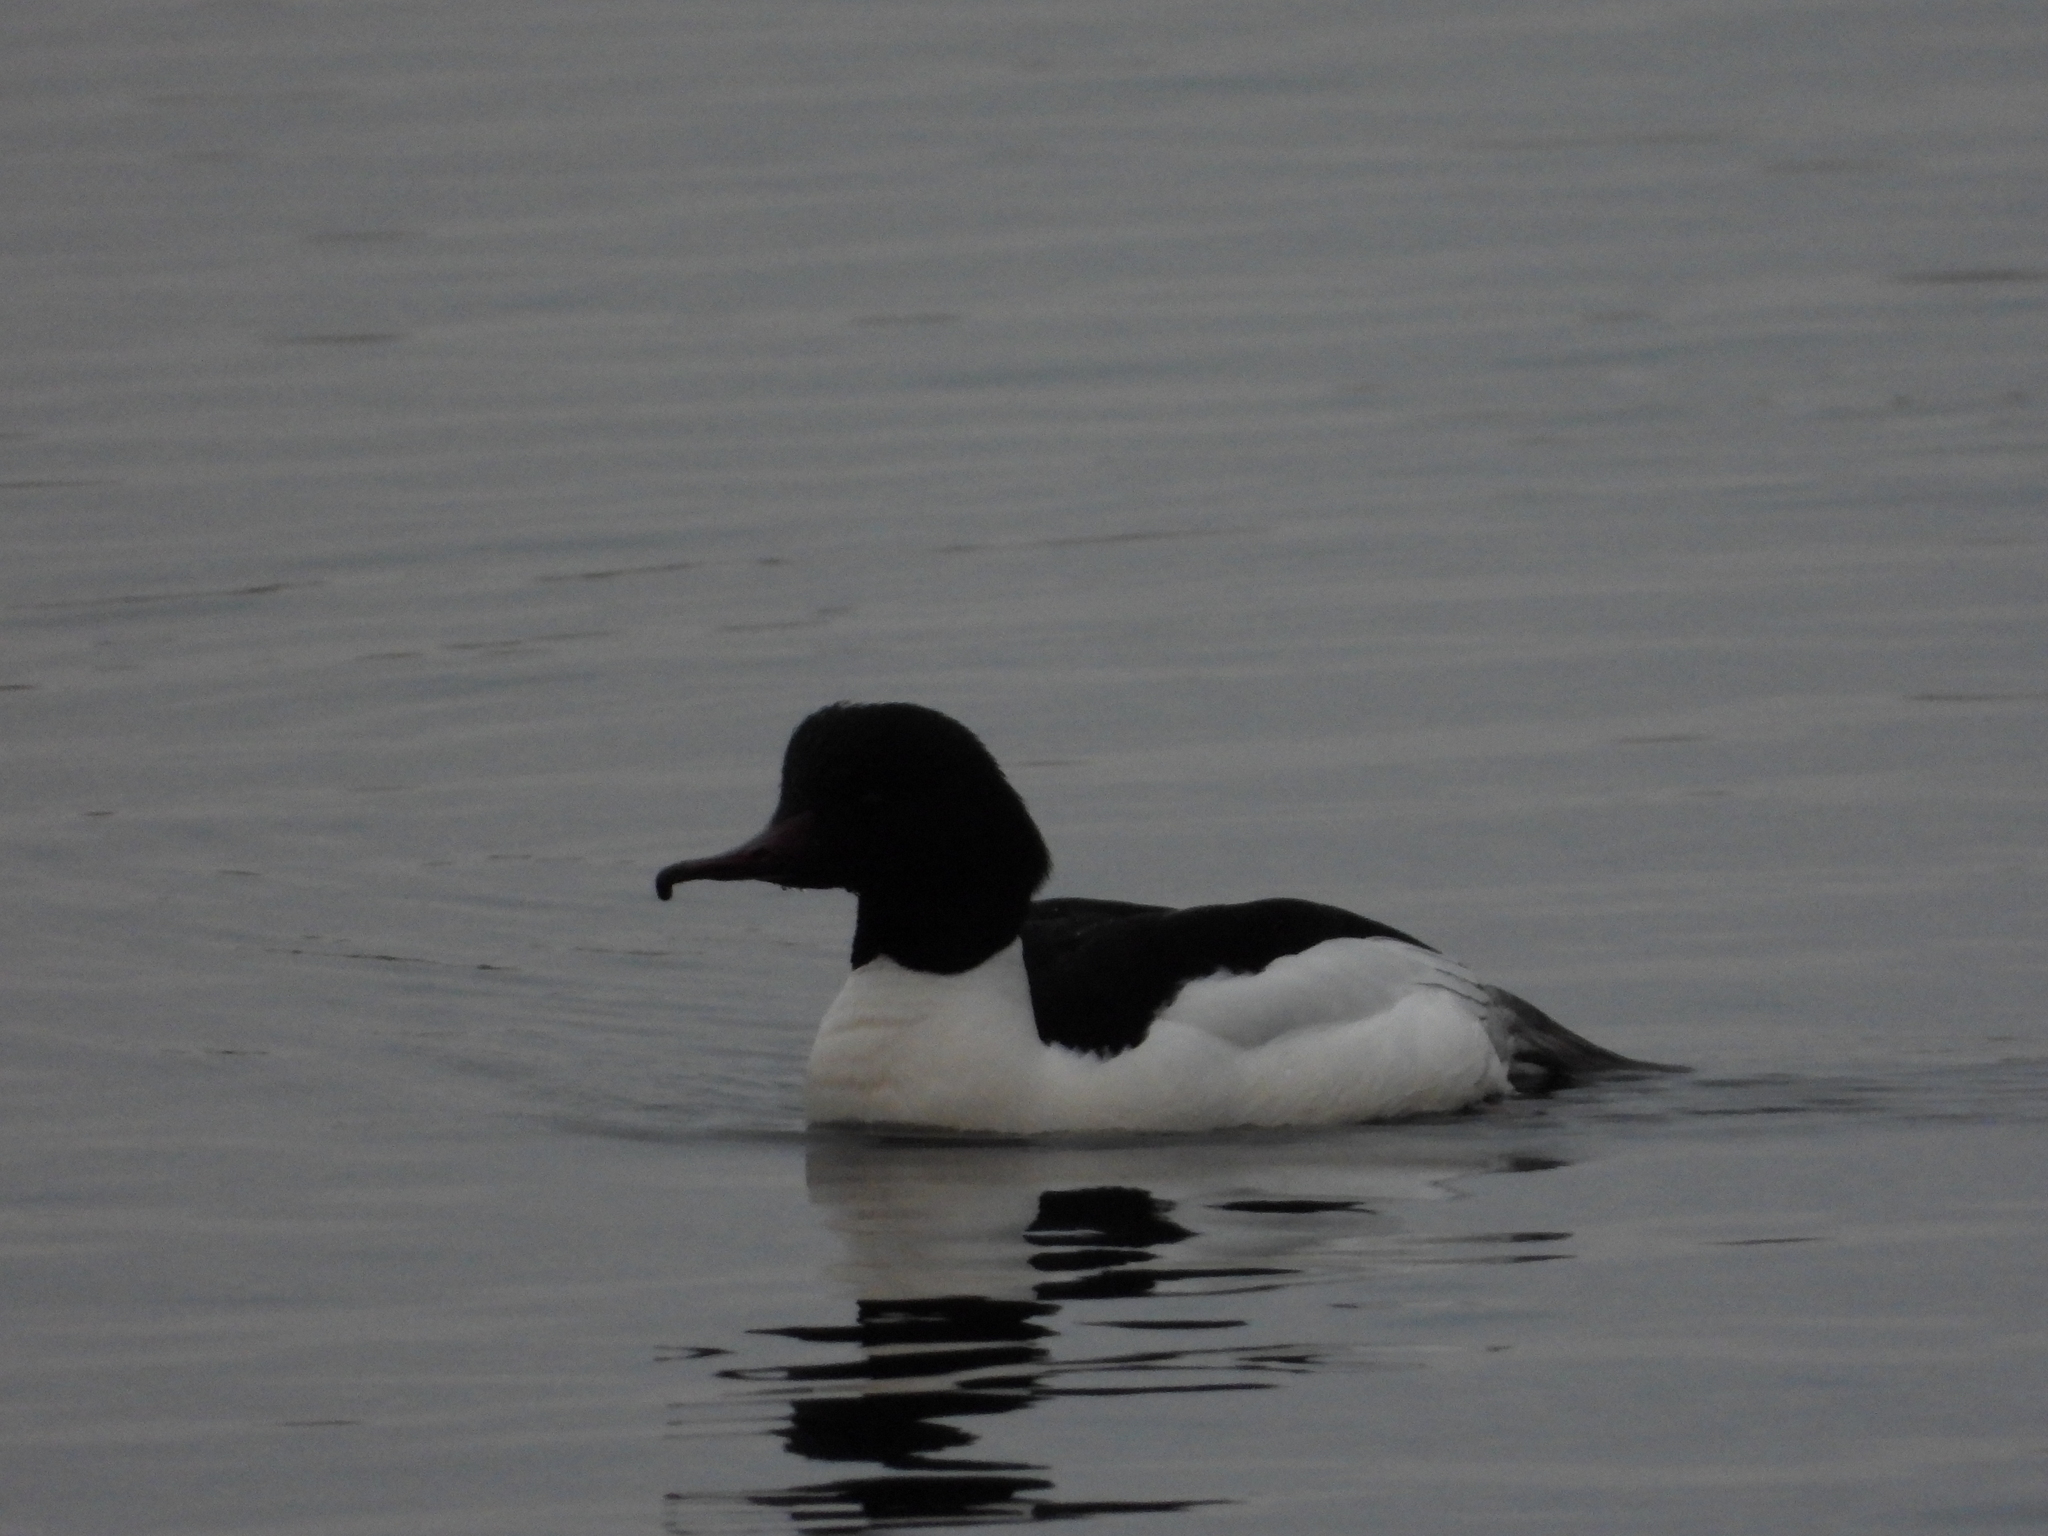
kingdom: Animalia
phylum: Chordata
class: Aves
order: Anseriformes
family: Anatidae
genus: Mergus
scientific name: Mergus merganser
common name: Common merganser
